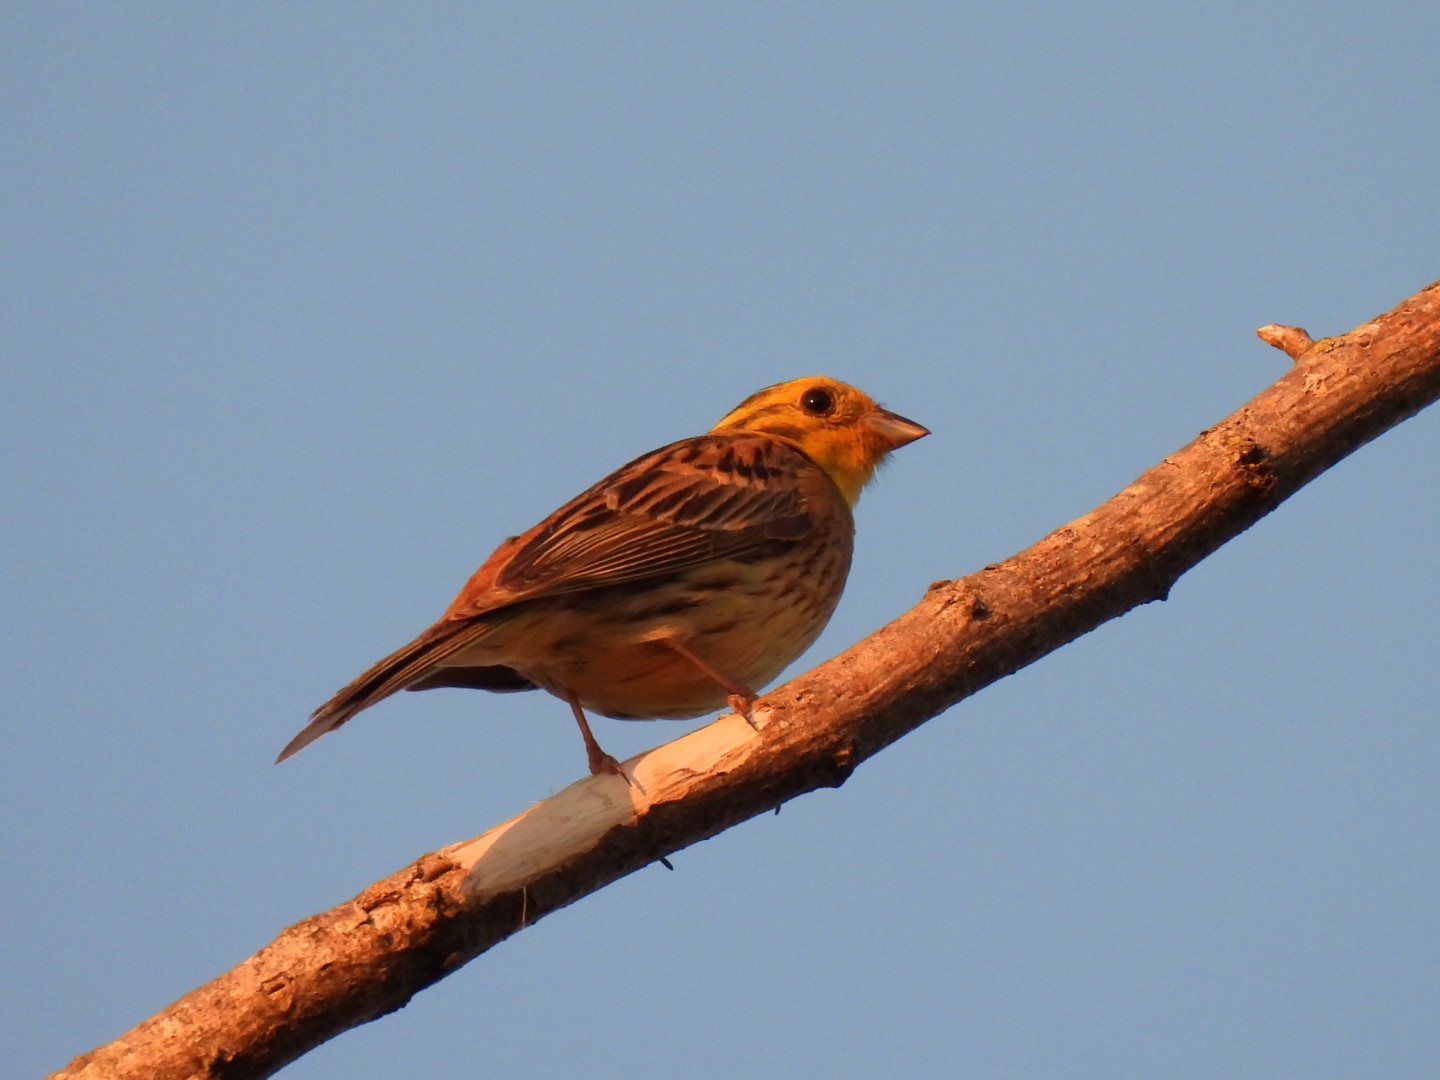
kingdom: Animalia
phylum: Chordata
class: Aves
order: Passeriformes
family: Emberizidae
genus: Emberiza
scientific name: Emberiza citrinella
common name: Yellowhammer
